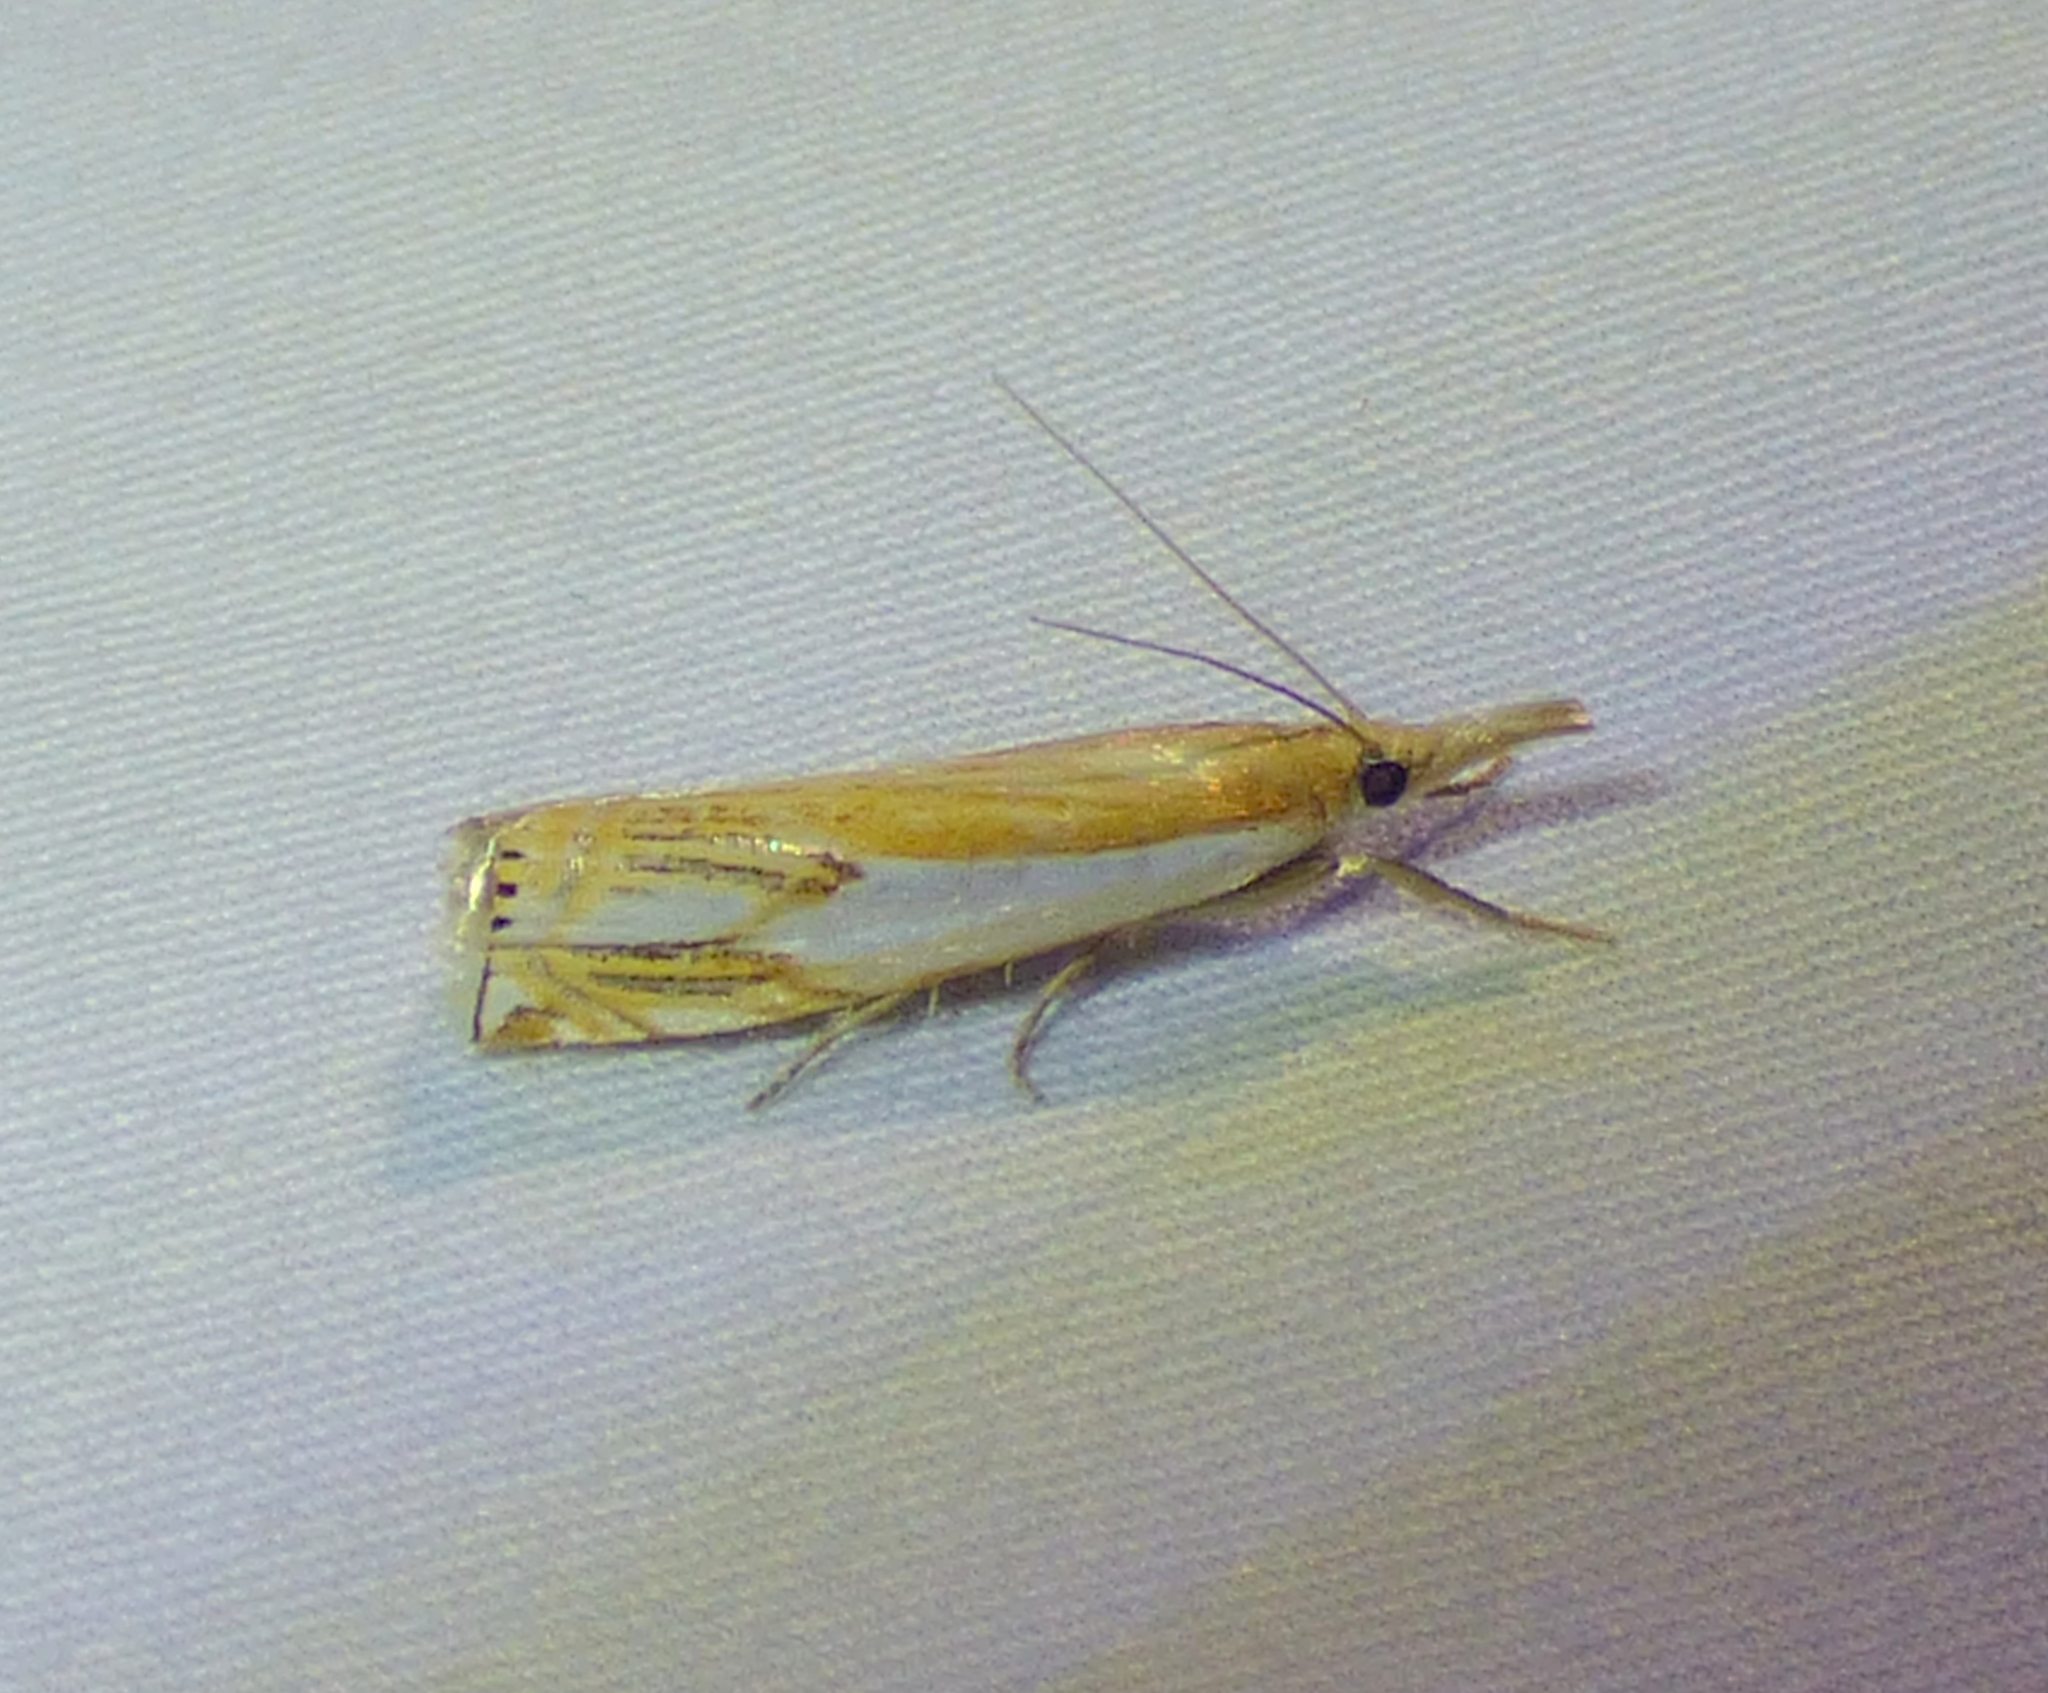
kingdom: Animalia
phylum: Arthropoda
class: Insecta
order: Lepidoptera
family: Crambidae
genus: Crambus
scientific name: Crambus agitatellus
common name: Double-banded grass-veneer
